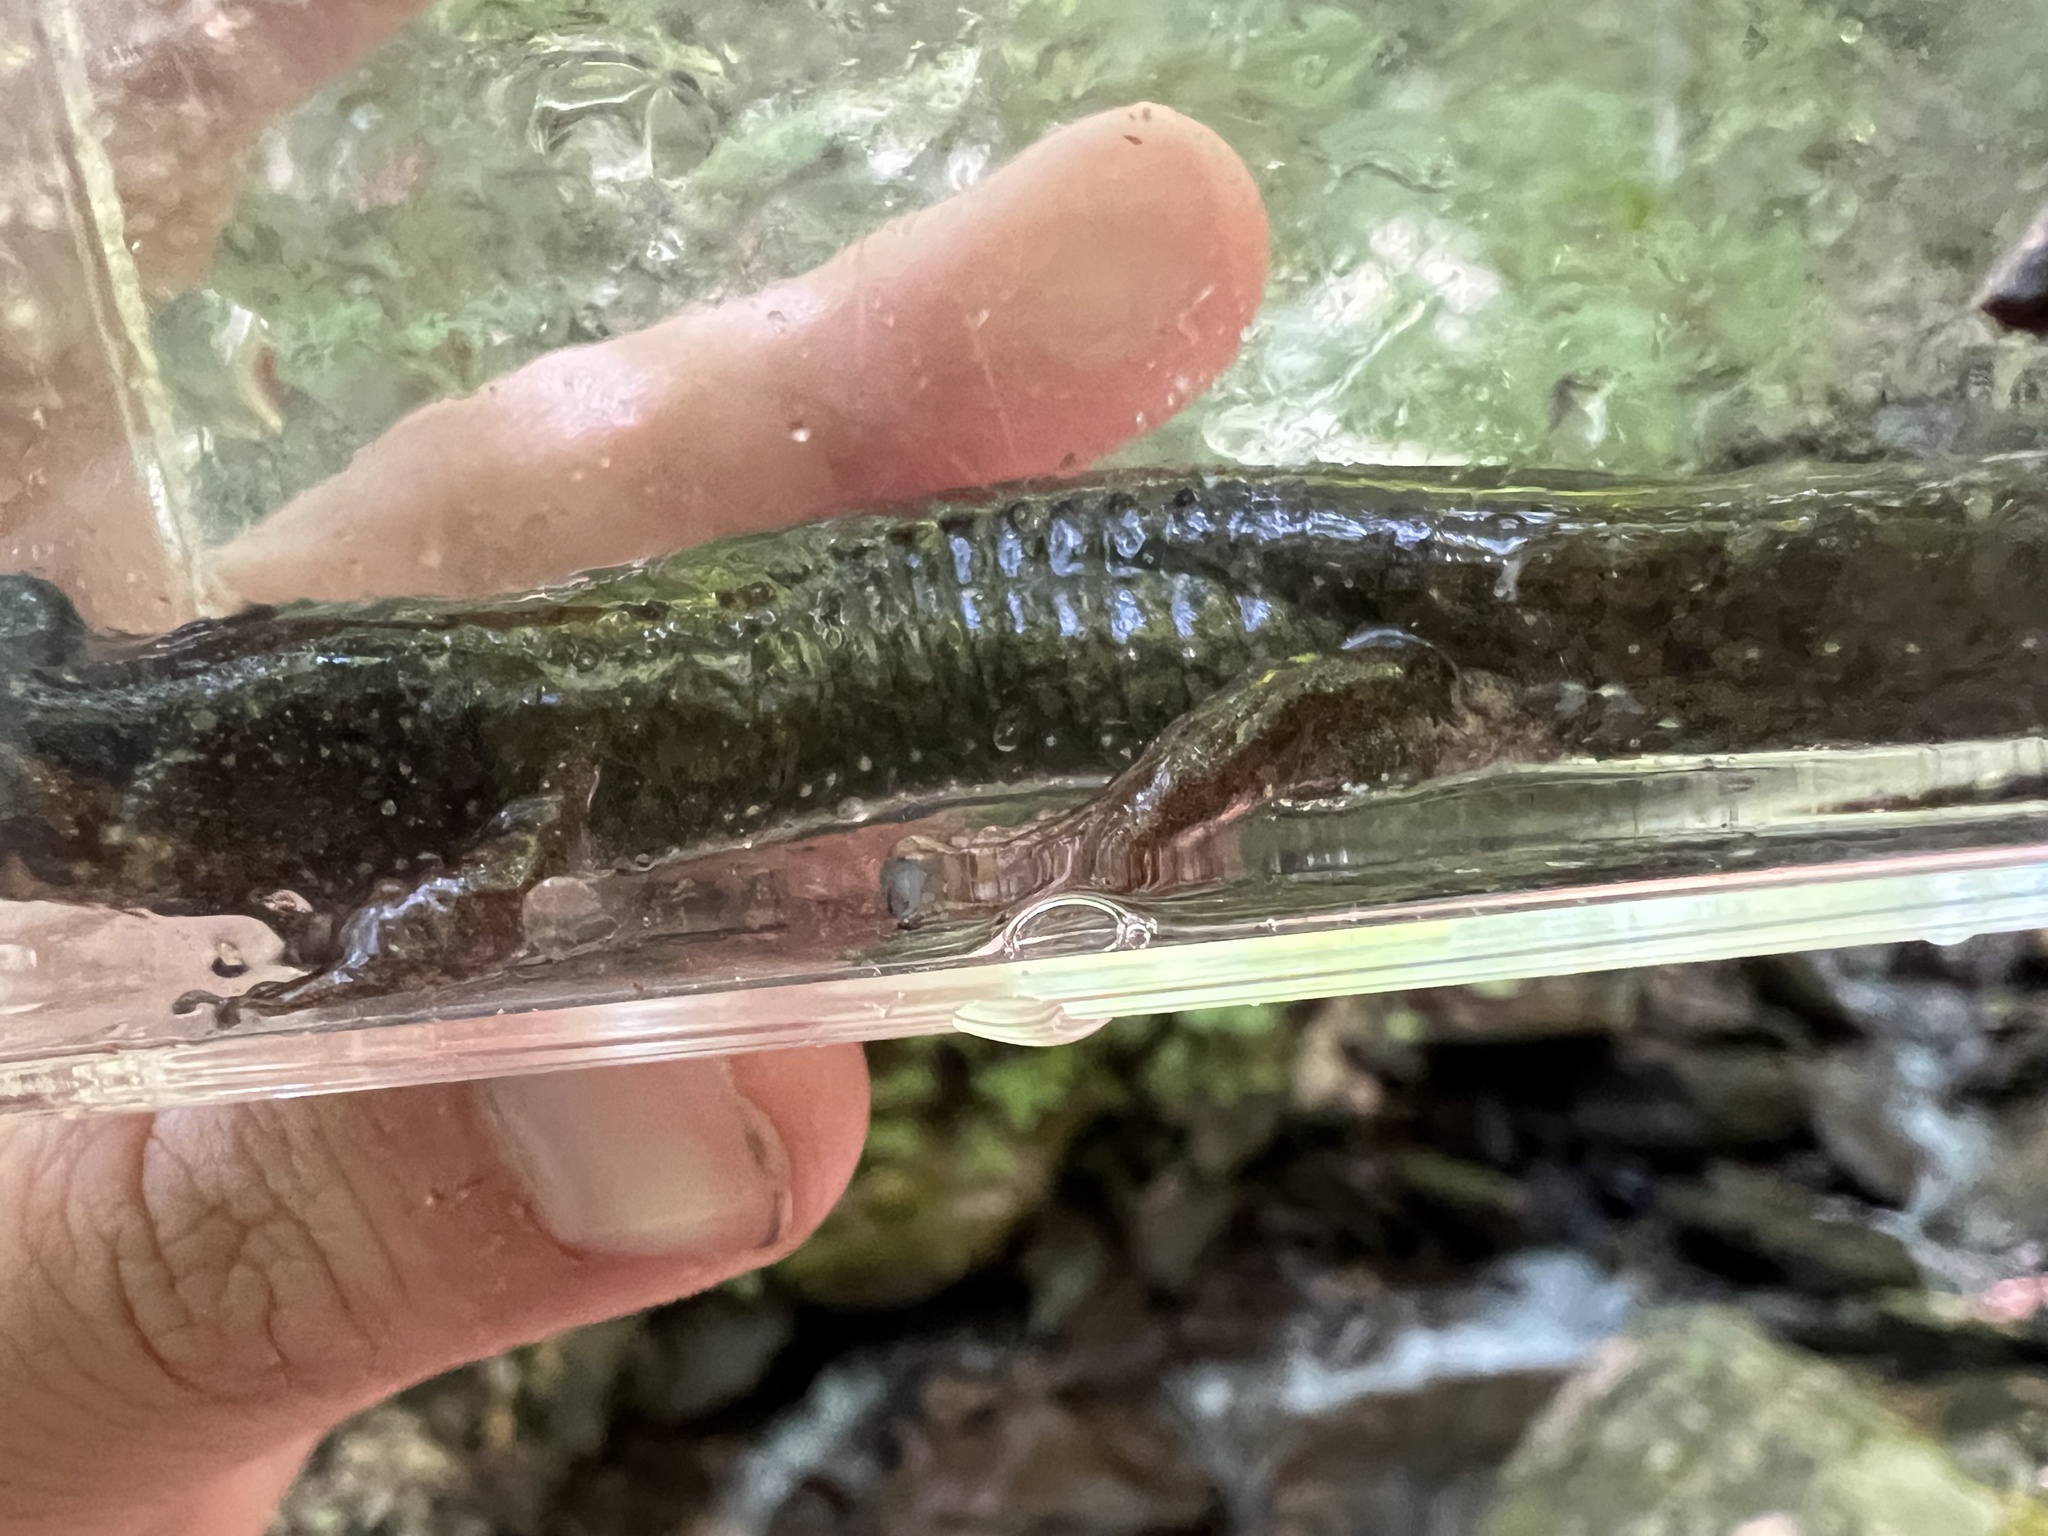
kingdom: Animalia
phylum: Chordata
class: Amphibia
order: Caudata
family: Plethodontidae
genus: Desmognathus
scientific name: Desmognathus
